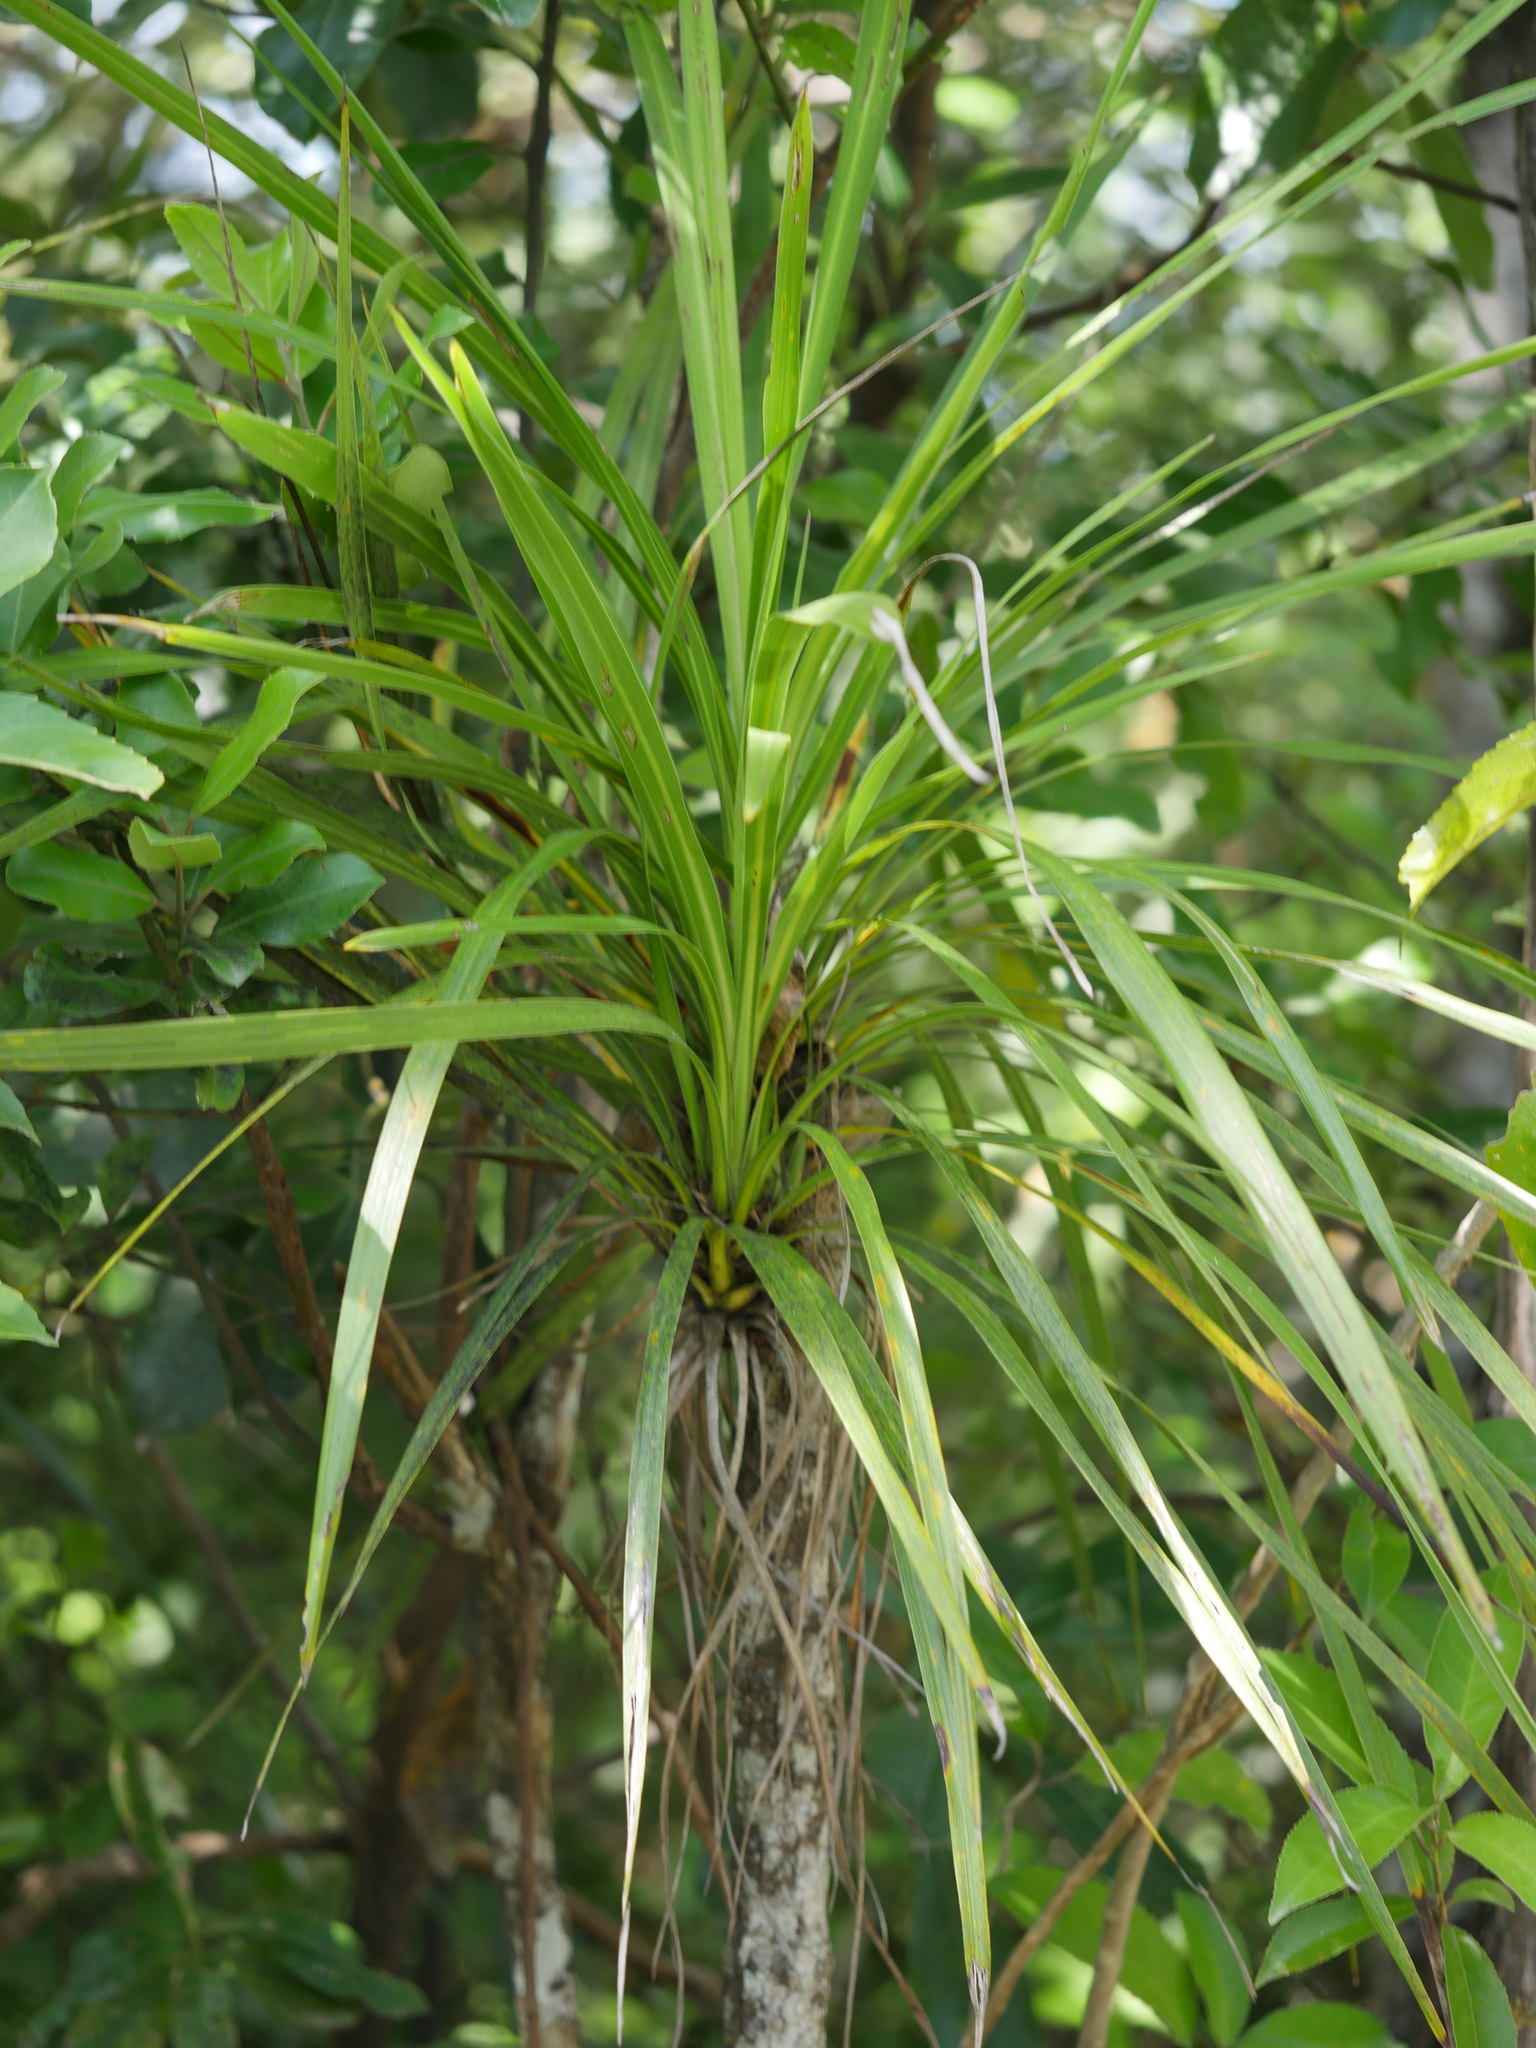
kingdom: Plantae
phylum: Tracheophyta
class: Liliopsida
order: Asparagales
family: Asparagaceae
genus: Cordyline
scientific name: Cordyline pumilio
